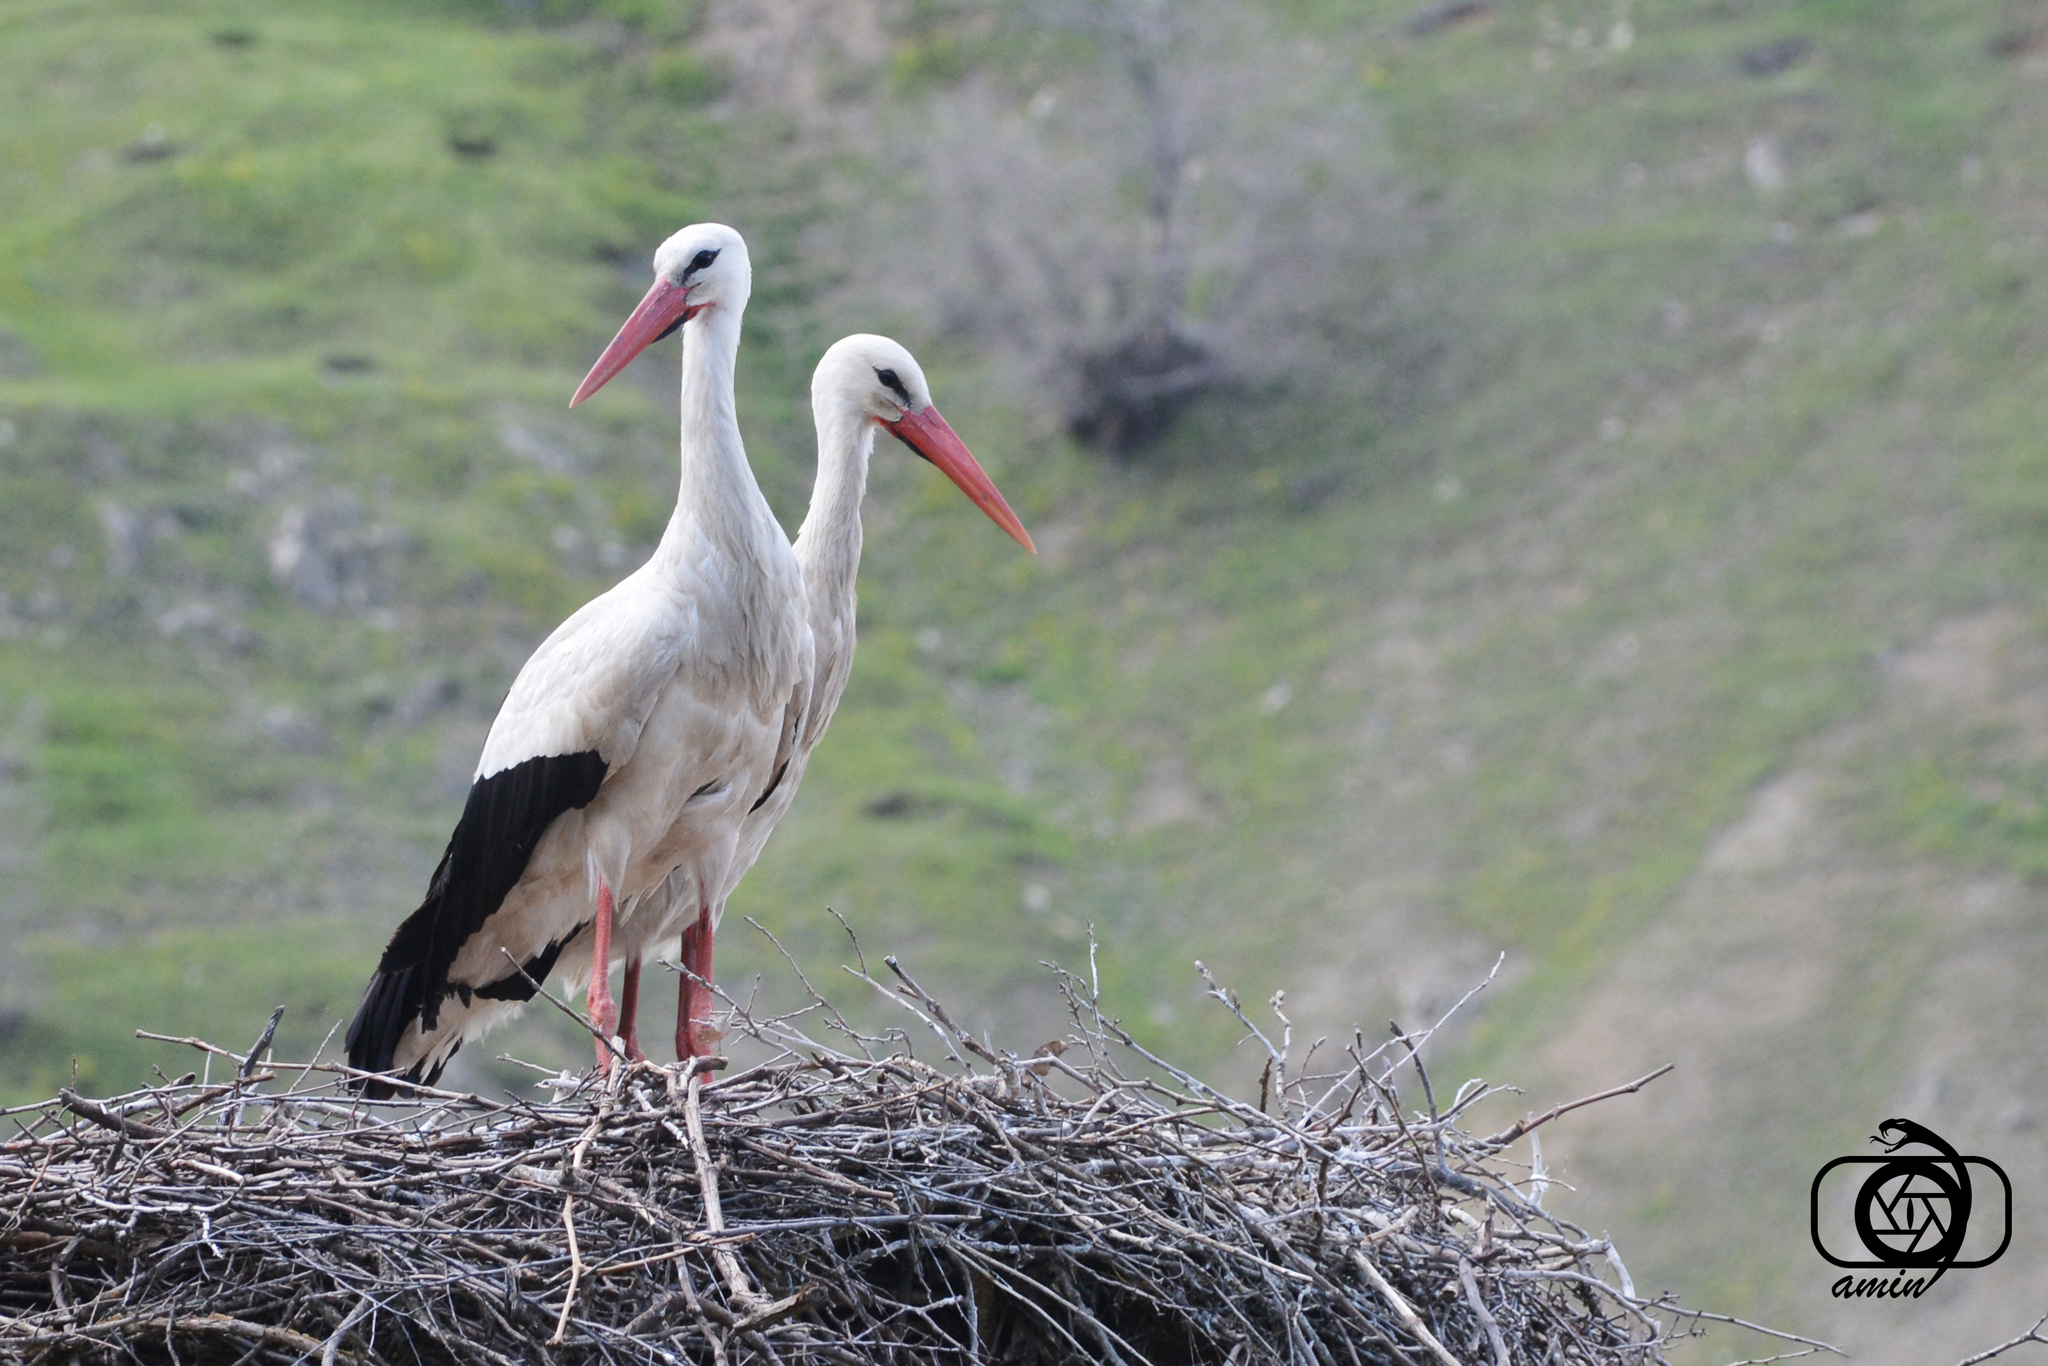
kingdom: Animalia
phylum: Chordata
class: Aves
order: Ciconiiformes
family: Ciconiidae
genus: Ciconia
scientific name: Ciconia ciconia
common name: White stork
